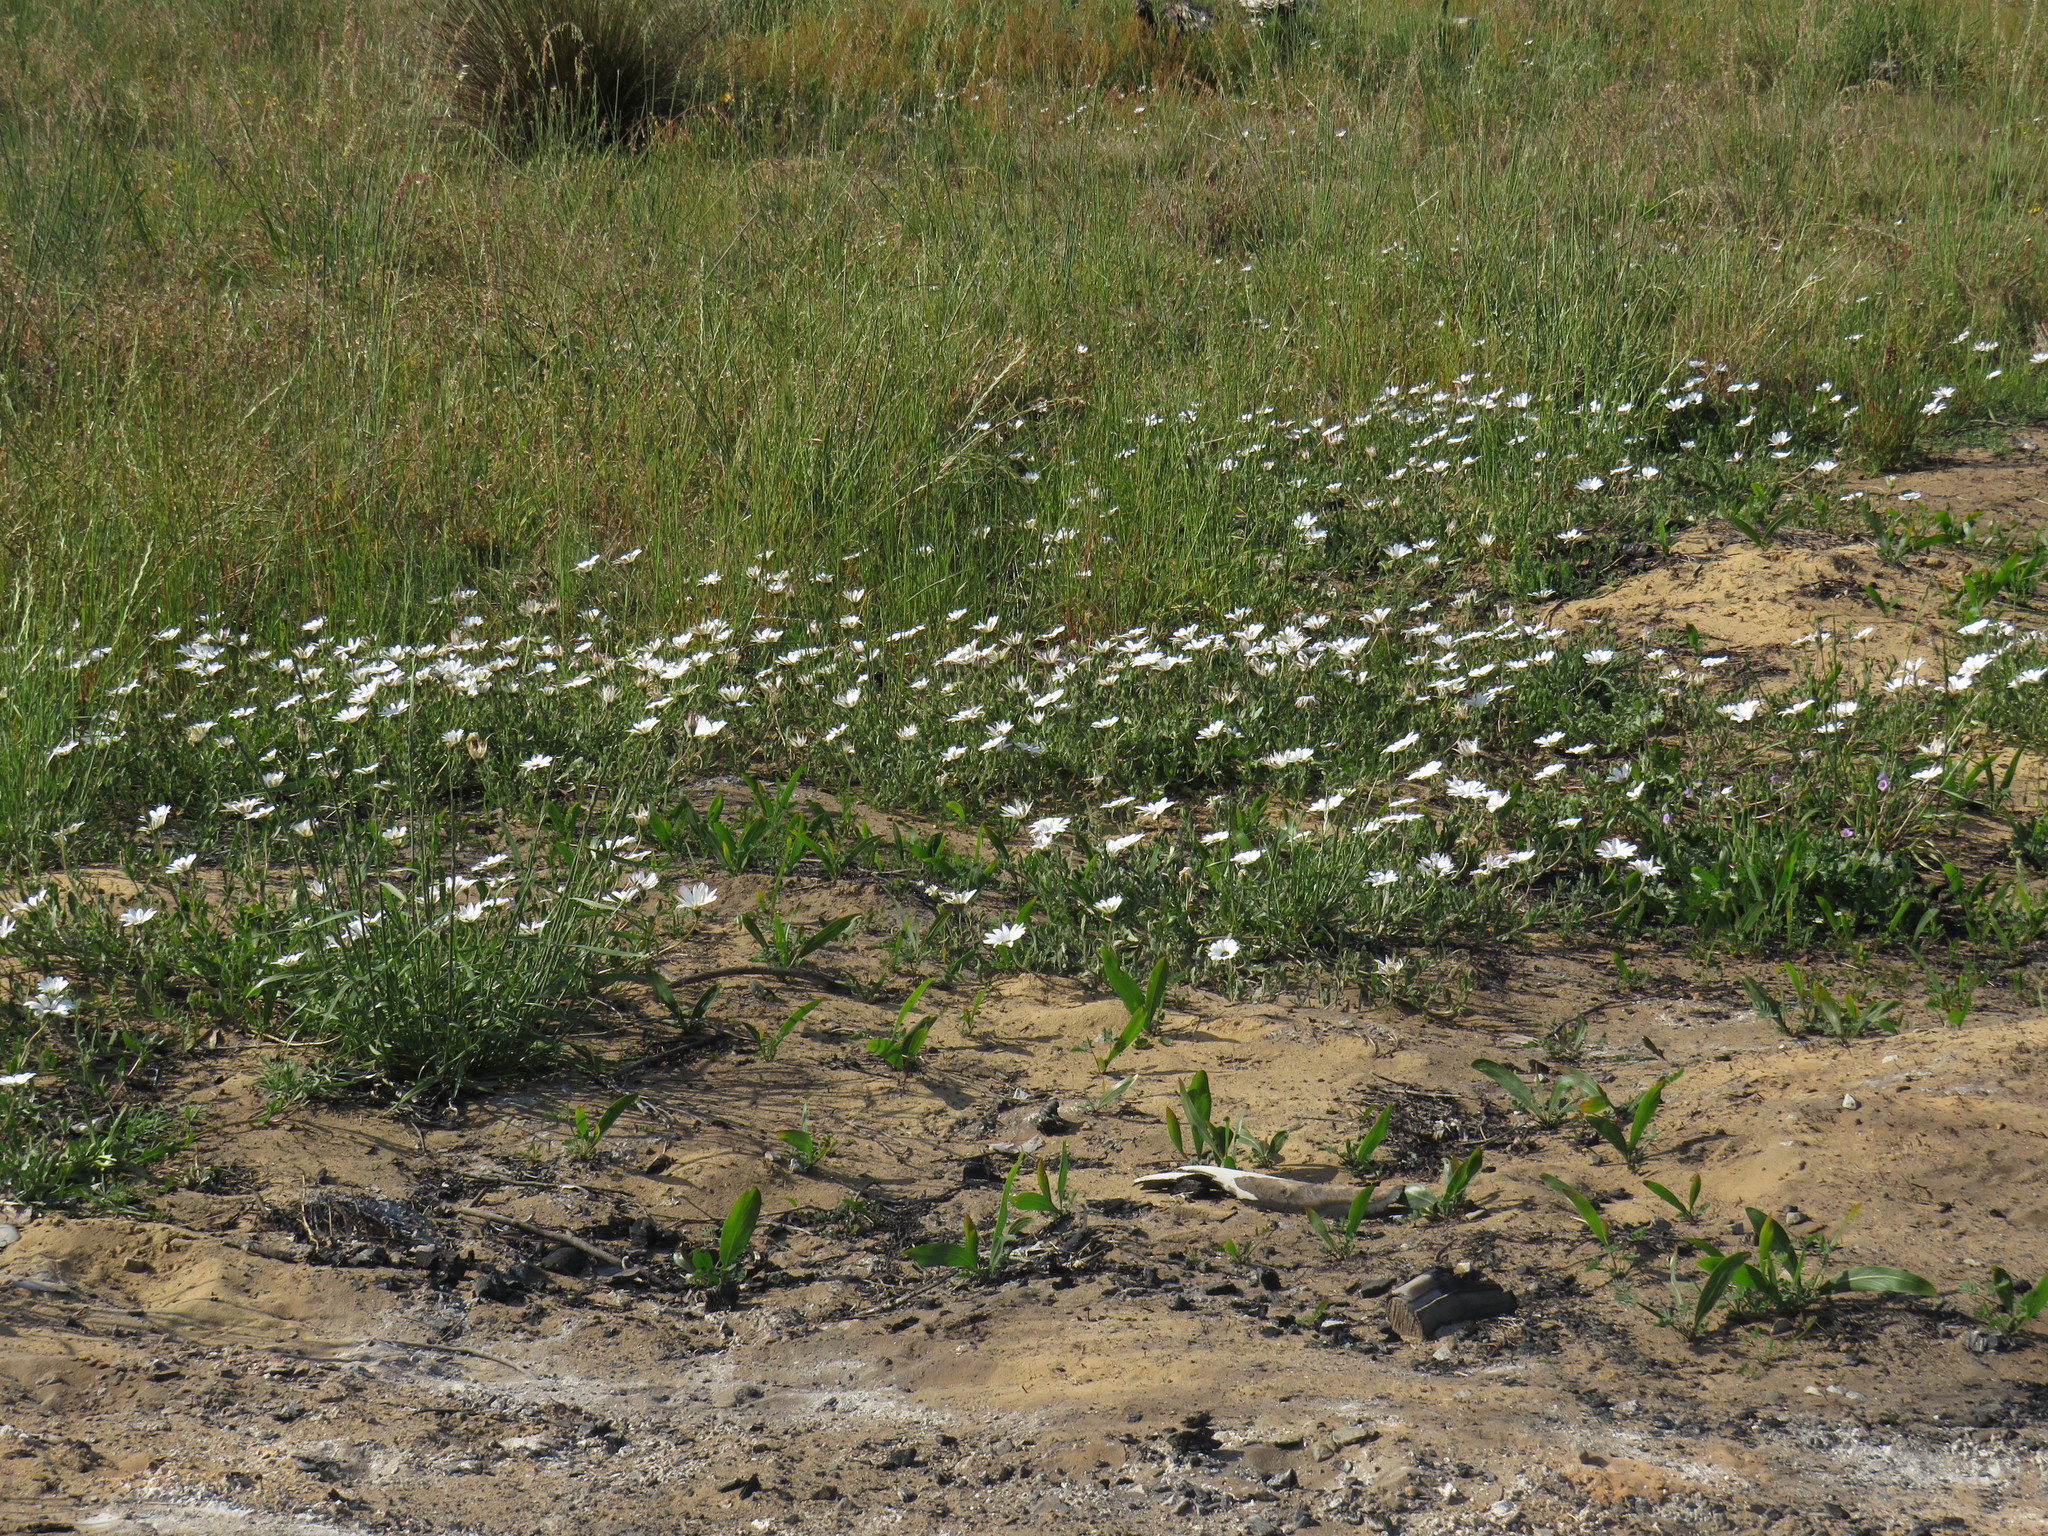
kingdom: Plantae
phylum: Tracheophyta
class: Magnoliopsida
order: Asterales
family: Asteraceae
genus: Dimorphotheca
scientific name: Dimorphotheca pluvialis
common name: Weather prophet
